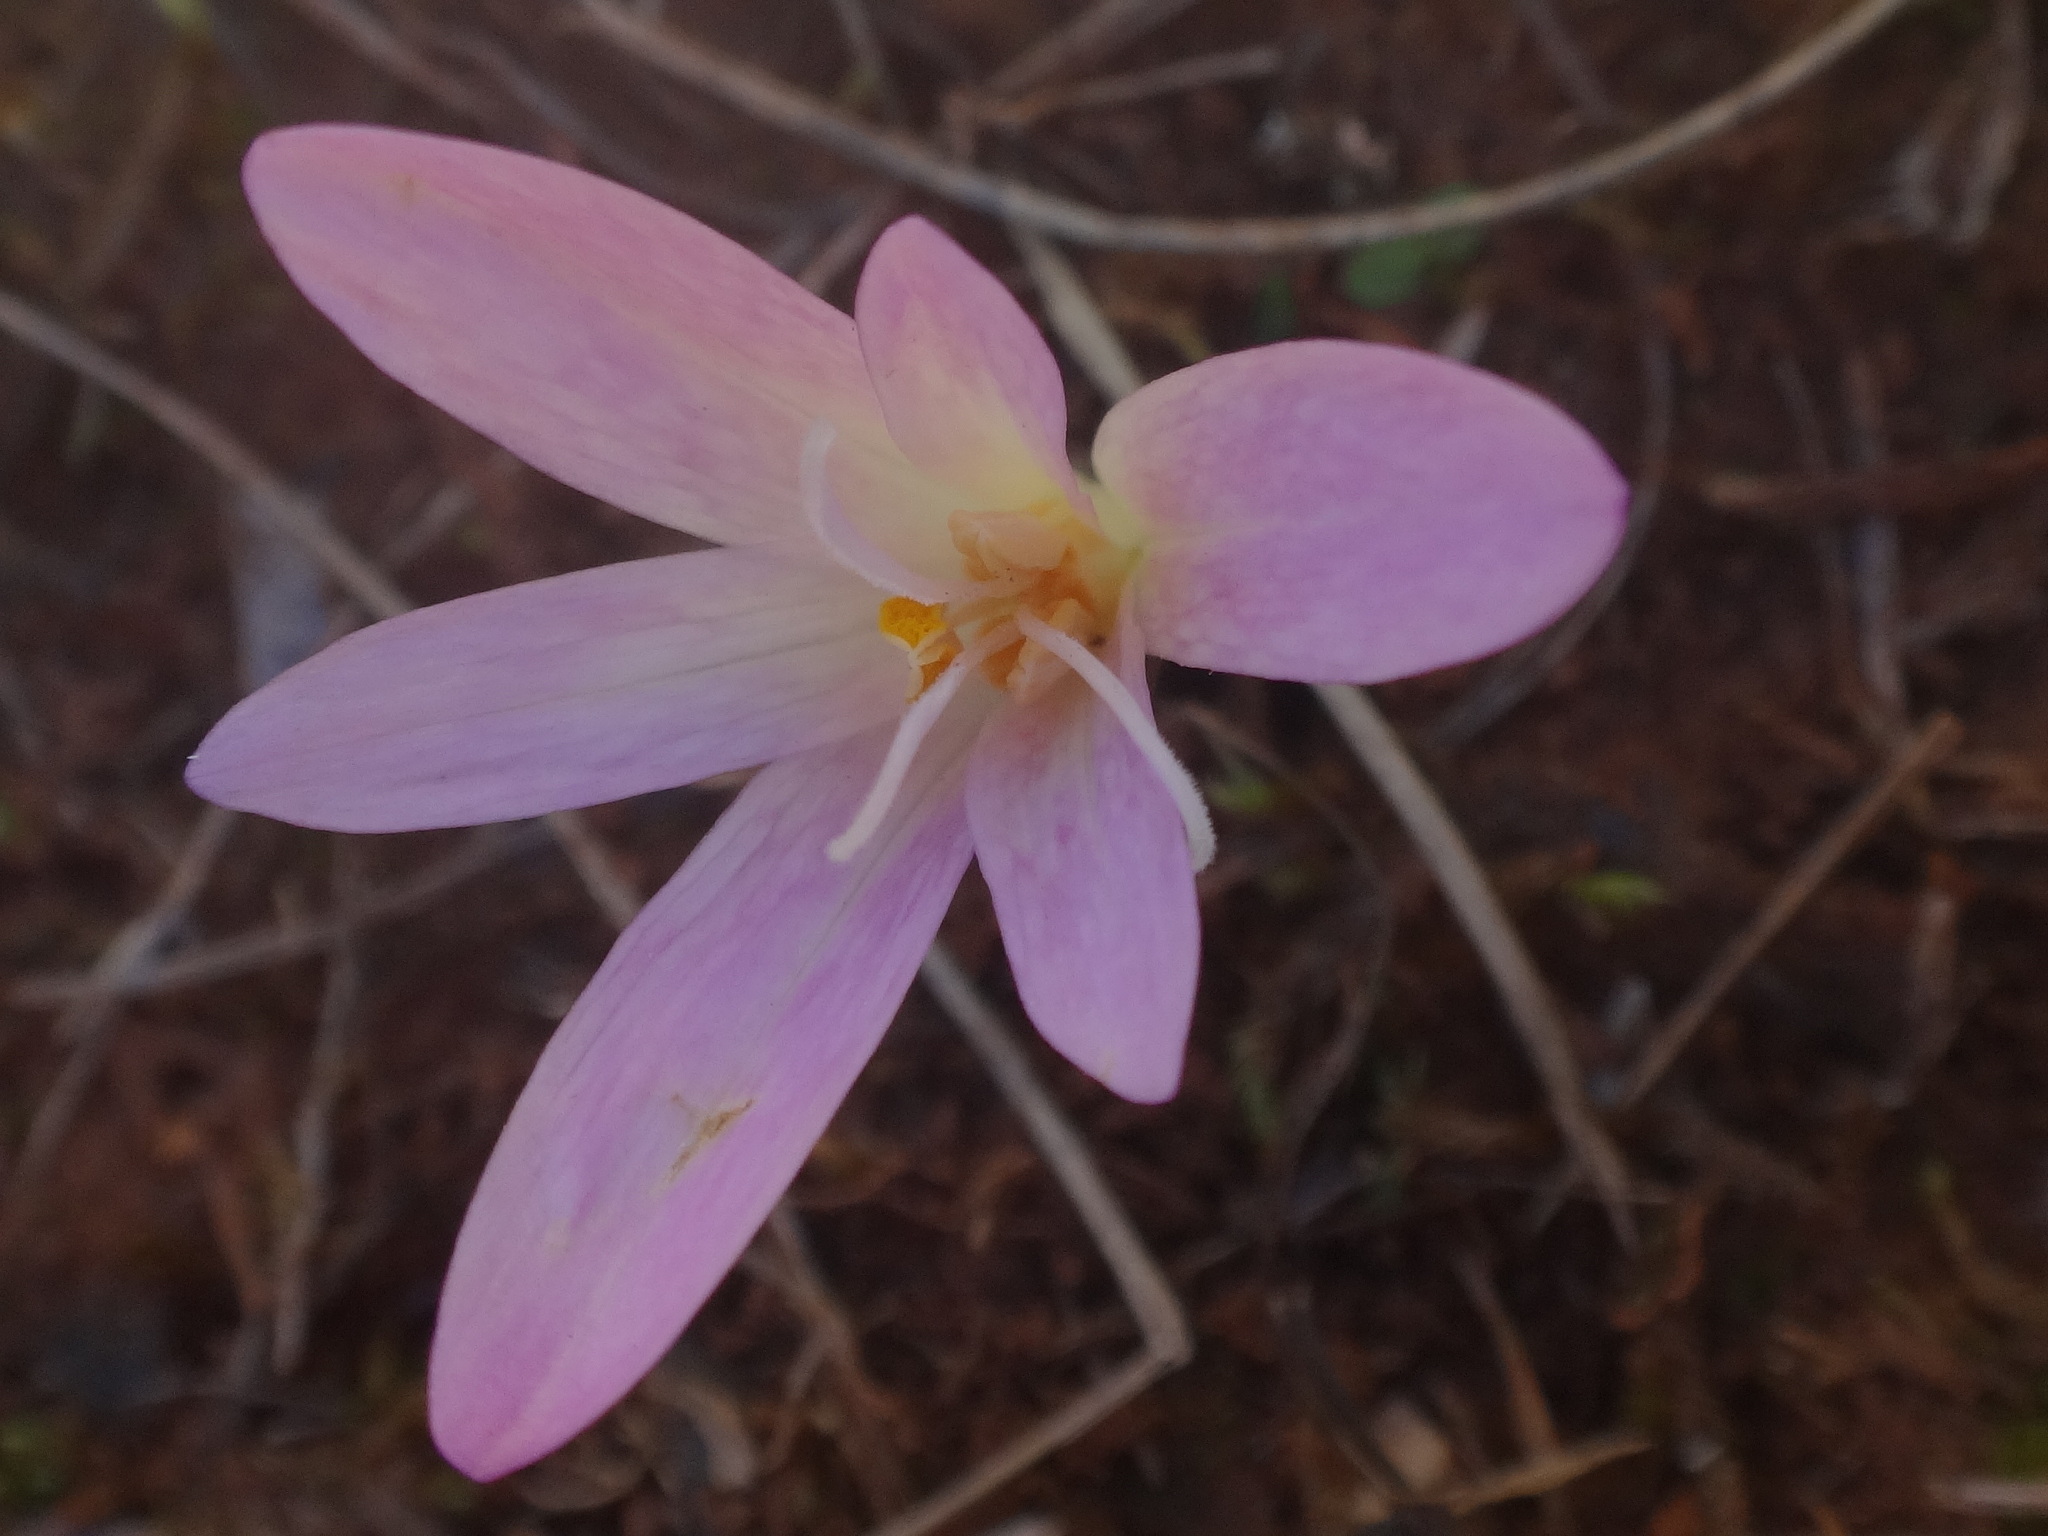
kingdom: Plantae
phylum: Tracheophyta
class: Liliopsida
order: Liliales
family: Colchicaceae
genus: Colchicum
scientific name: Colchicum haynaldii
